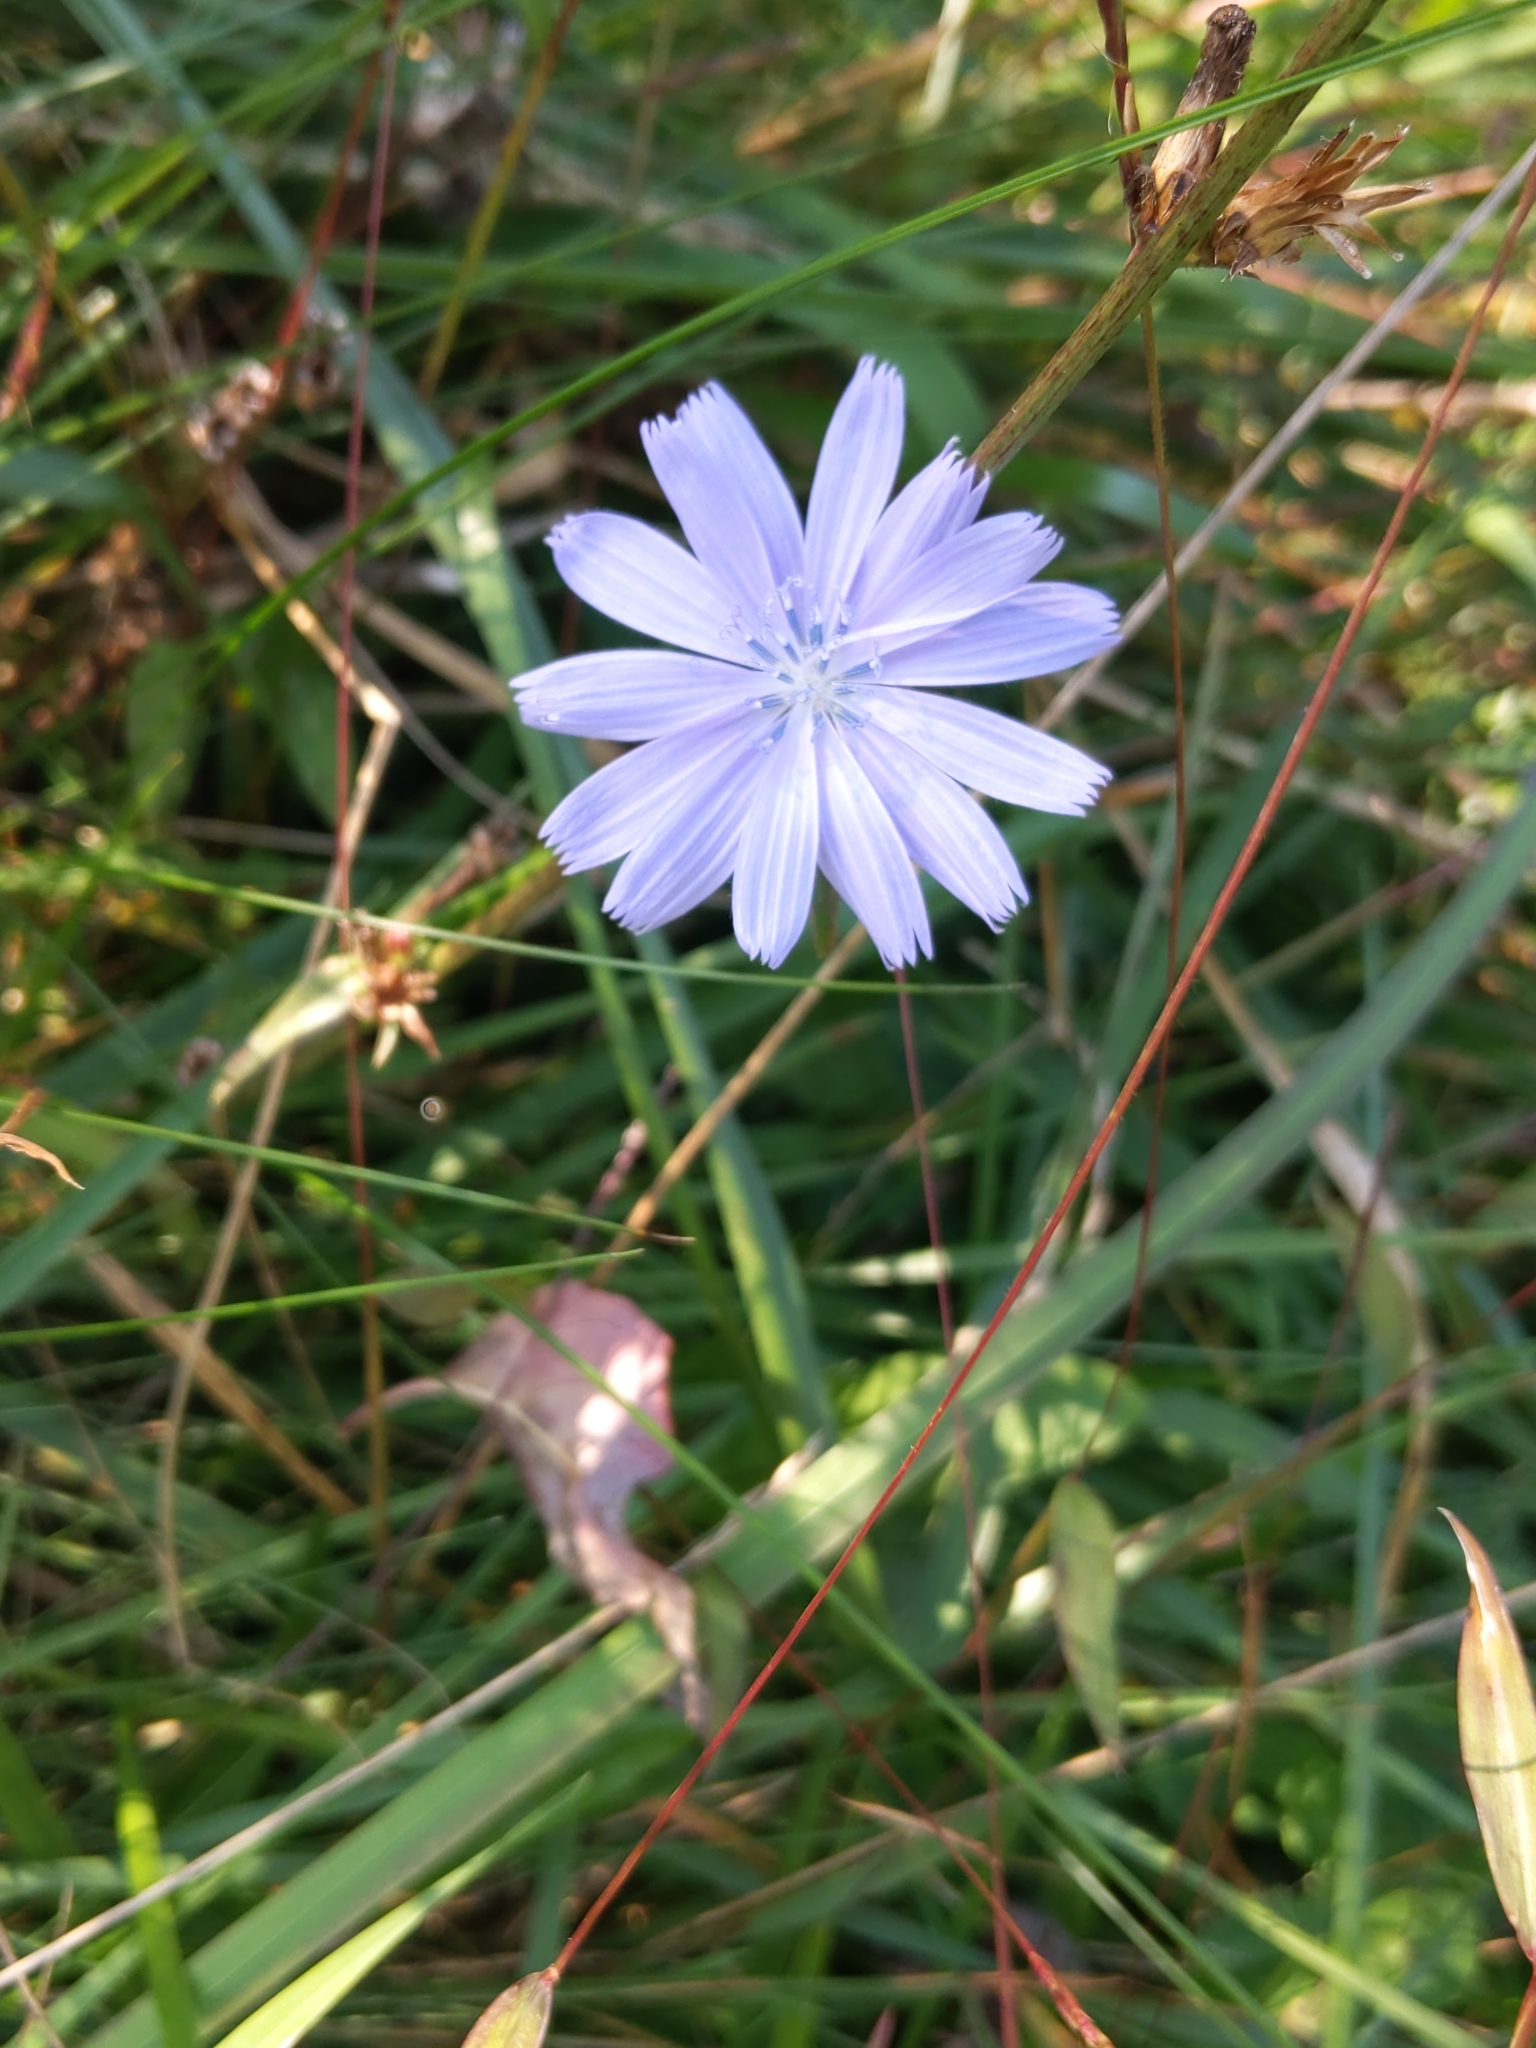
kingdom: Plantae
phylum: Tracheophyta
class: Magnoliopsida
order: Asterales
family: Asteraceae
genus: Cichorium
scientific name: Cichorium intybus
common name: Chicory
